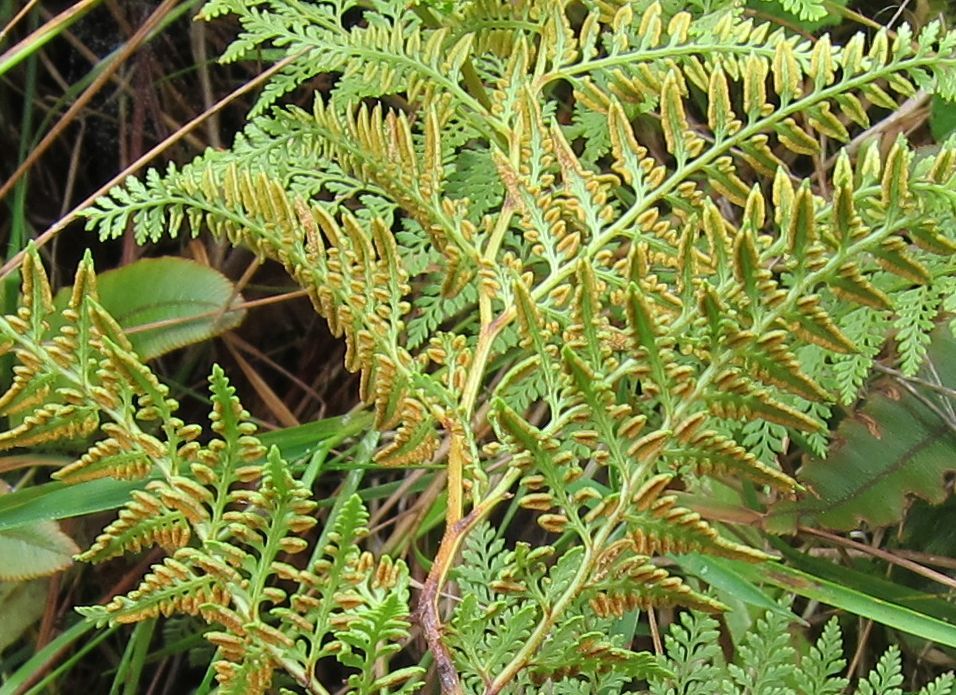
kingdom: Plantae
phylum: Tracheophyta
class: Polypodiopsida
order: Polypodiales
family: Dennstaedtiaceae
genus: Paesia
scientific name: Paesia scaberula
